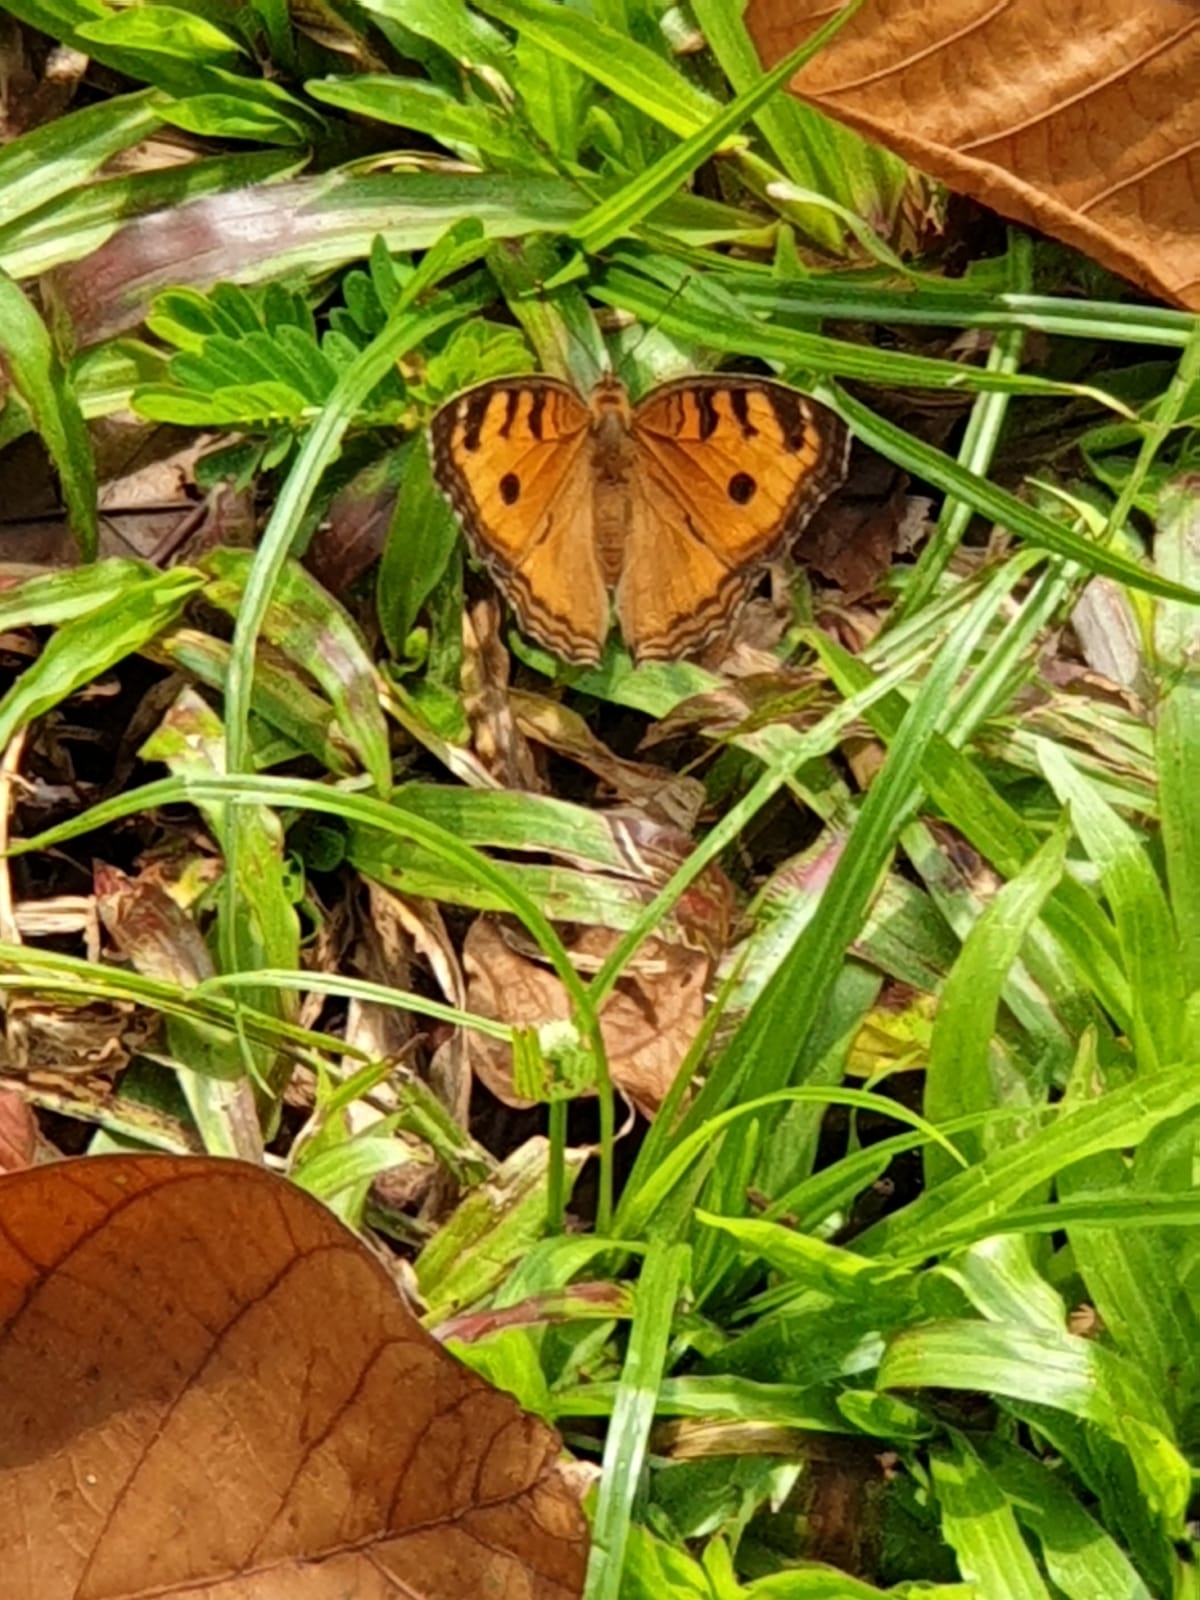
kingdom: Animalia
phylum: Arthropoda
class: Insecta
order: Lepidoptera
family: Nymphalidae
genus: Junonia
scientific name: Junonia almana
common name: Peacock pansy
